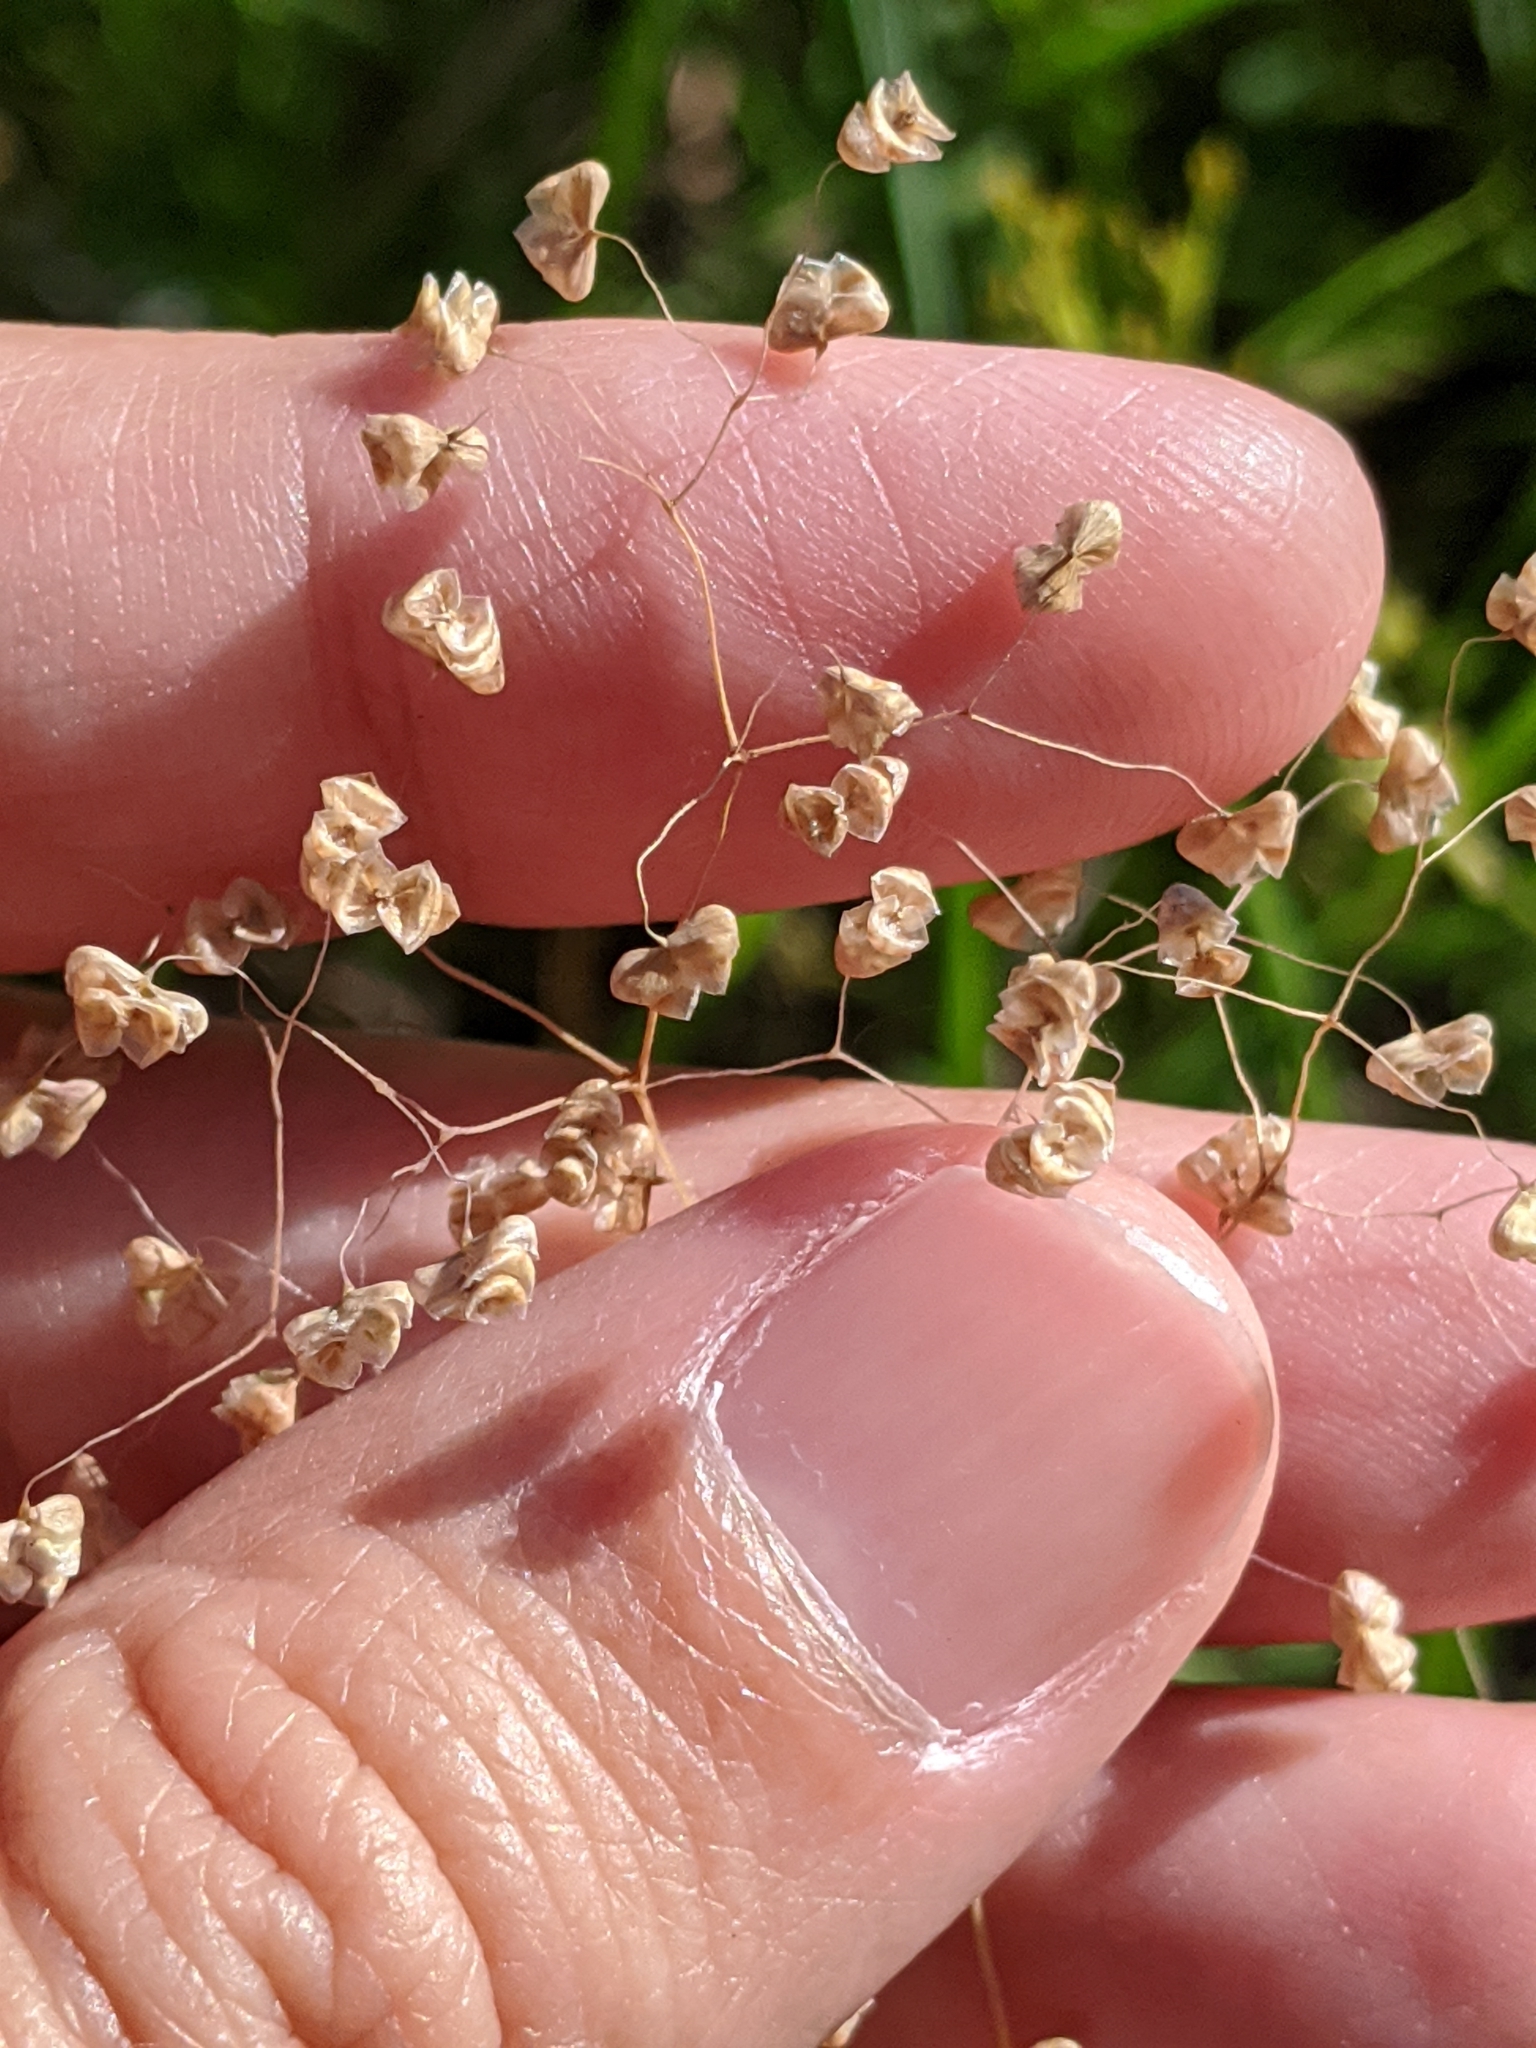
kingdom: Plantae
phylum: Tracheophyta
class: Liliopsida
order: Poales
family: Poaceae
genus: Briza
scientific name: Briza minor
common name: Lesser quaking-grass
